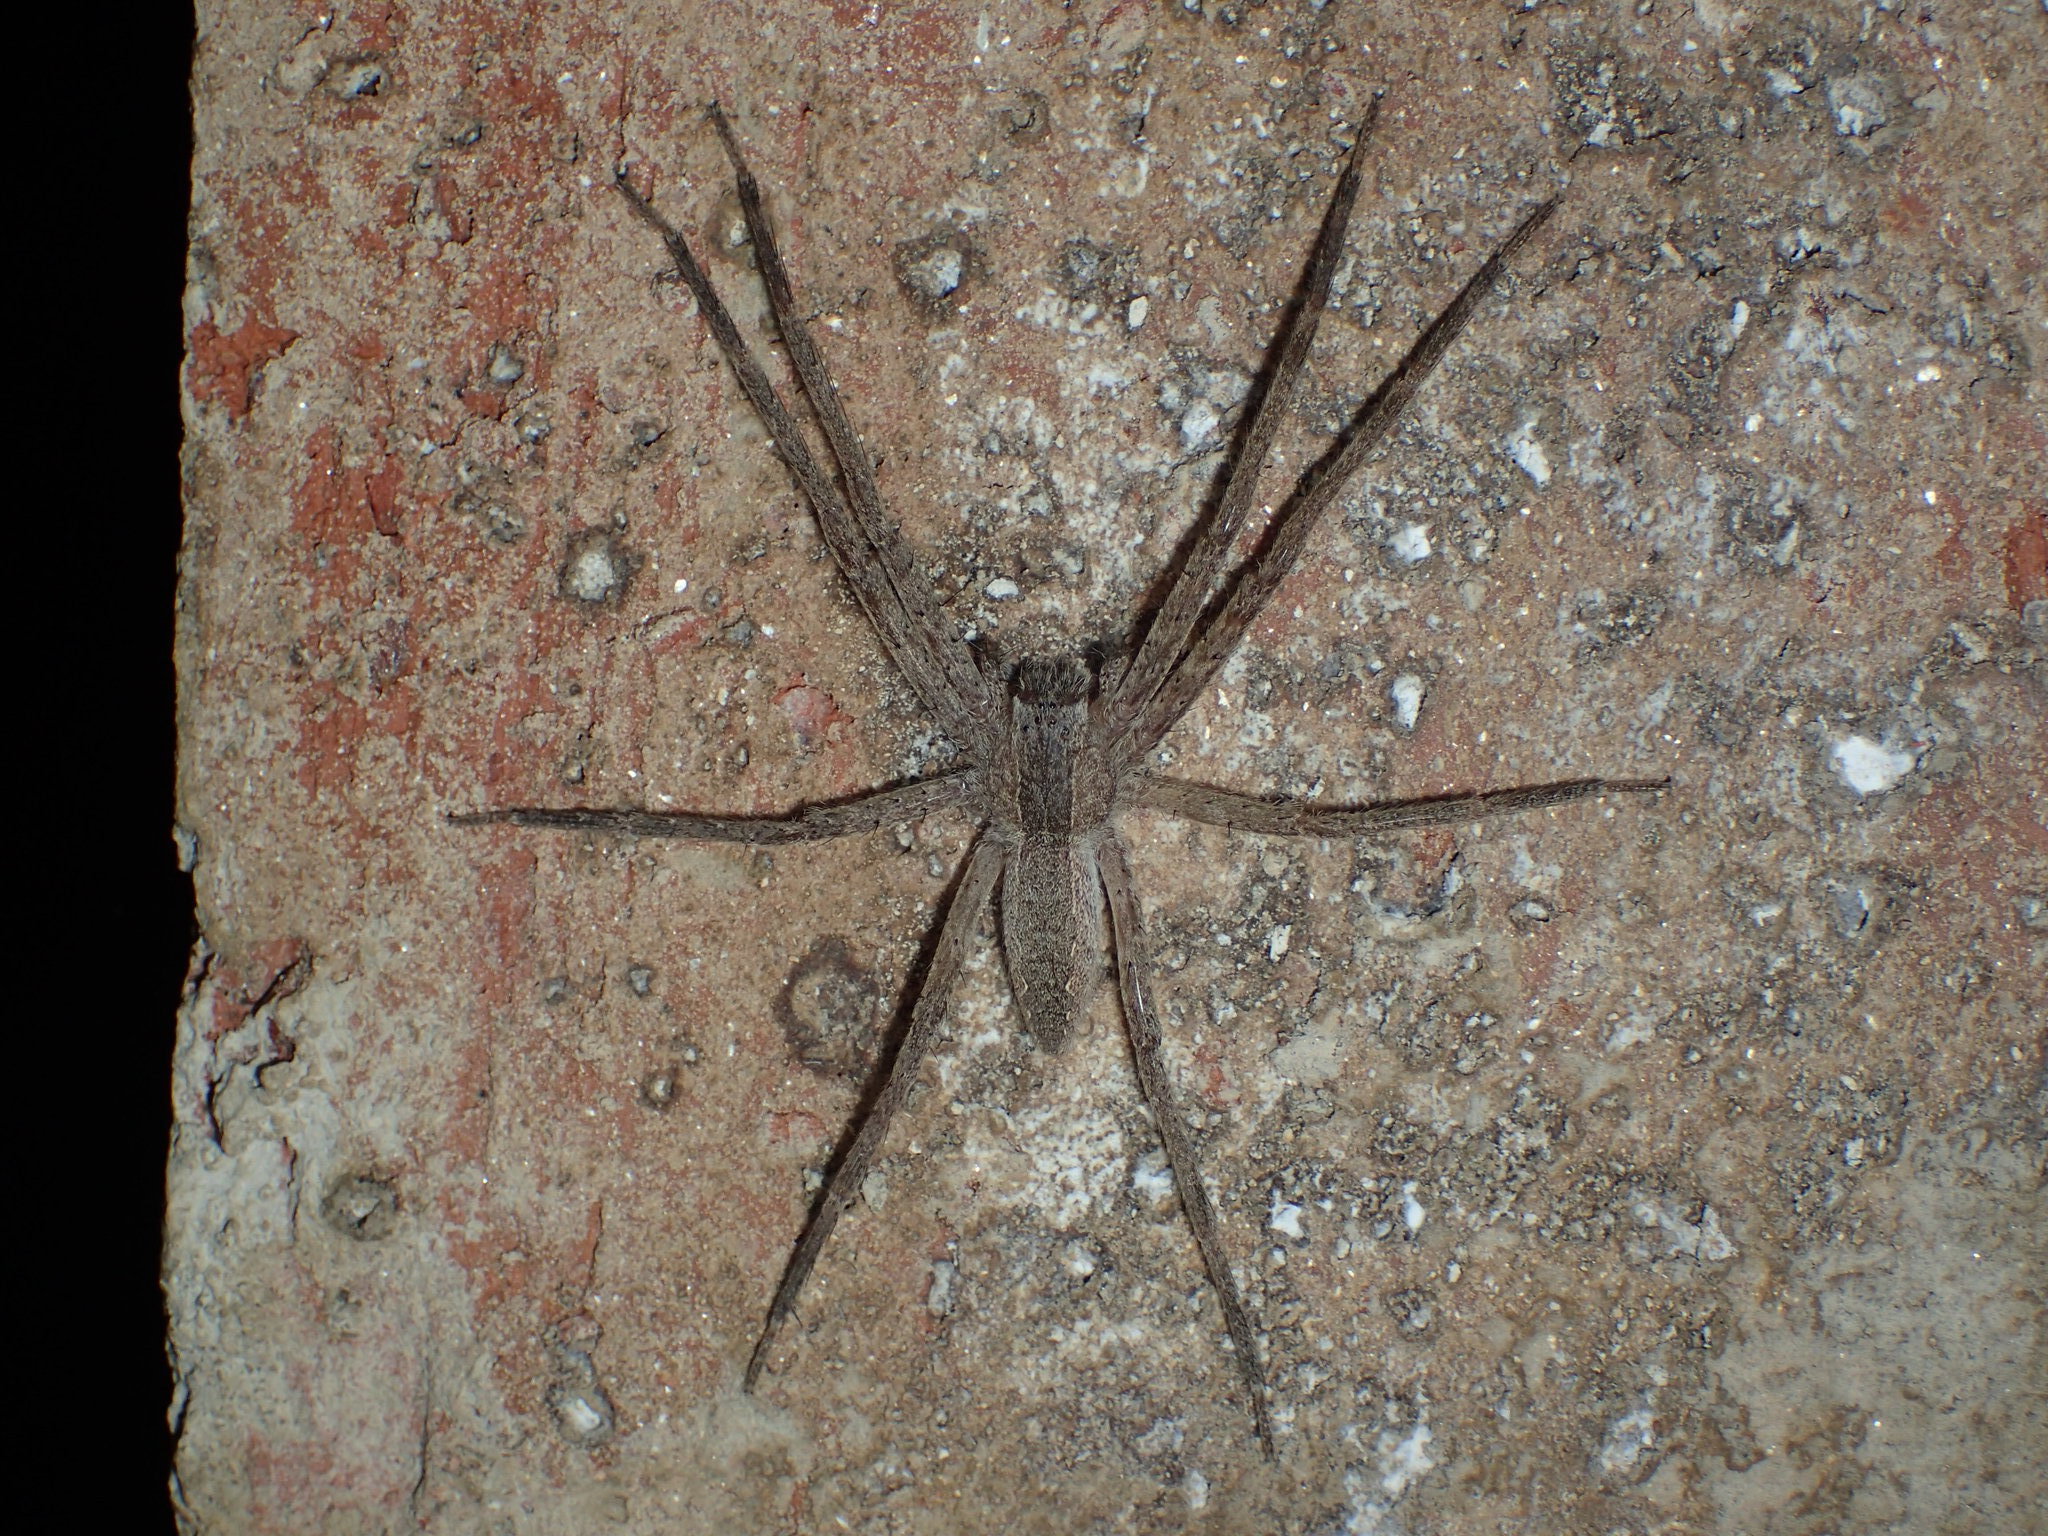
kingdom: Animalia
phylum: Arthropoda
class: Arachnida
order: Araneae
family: Pisauridae
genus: Pisaurina
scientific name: Pisaurina mira
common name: American nursery web spider
